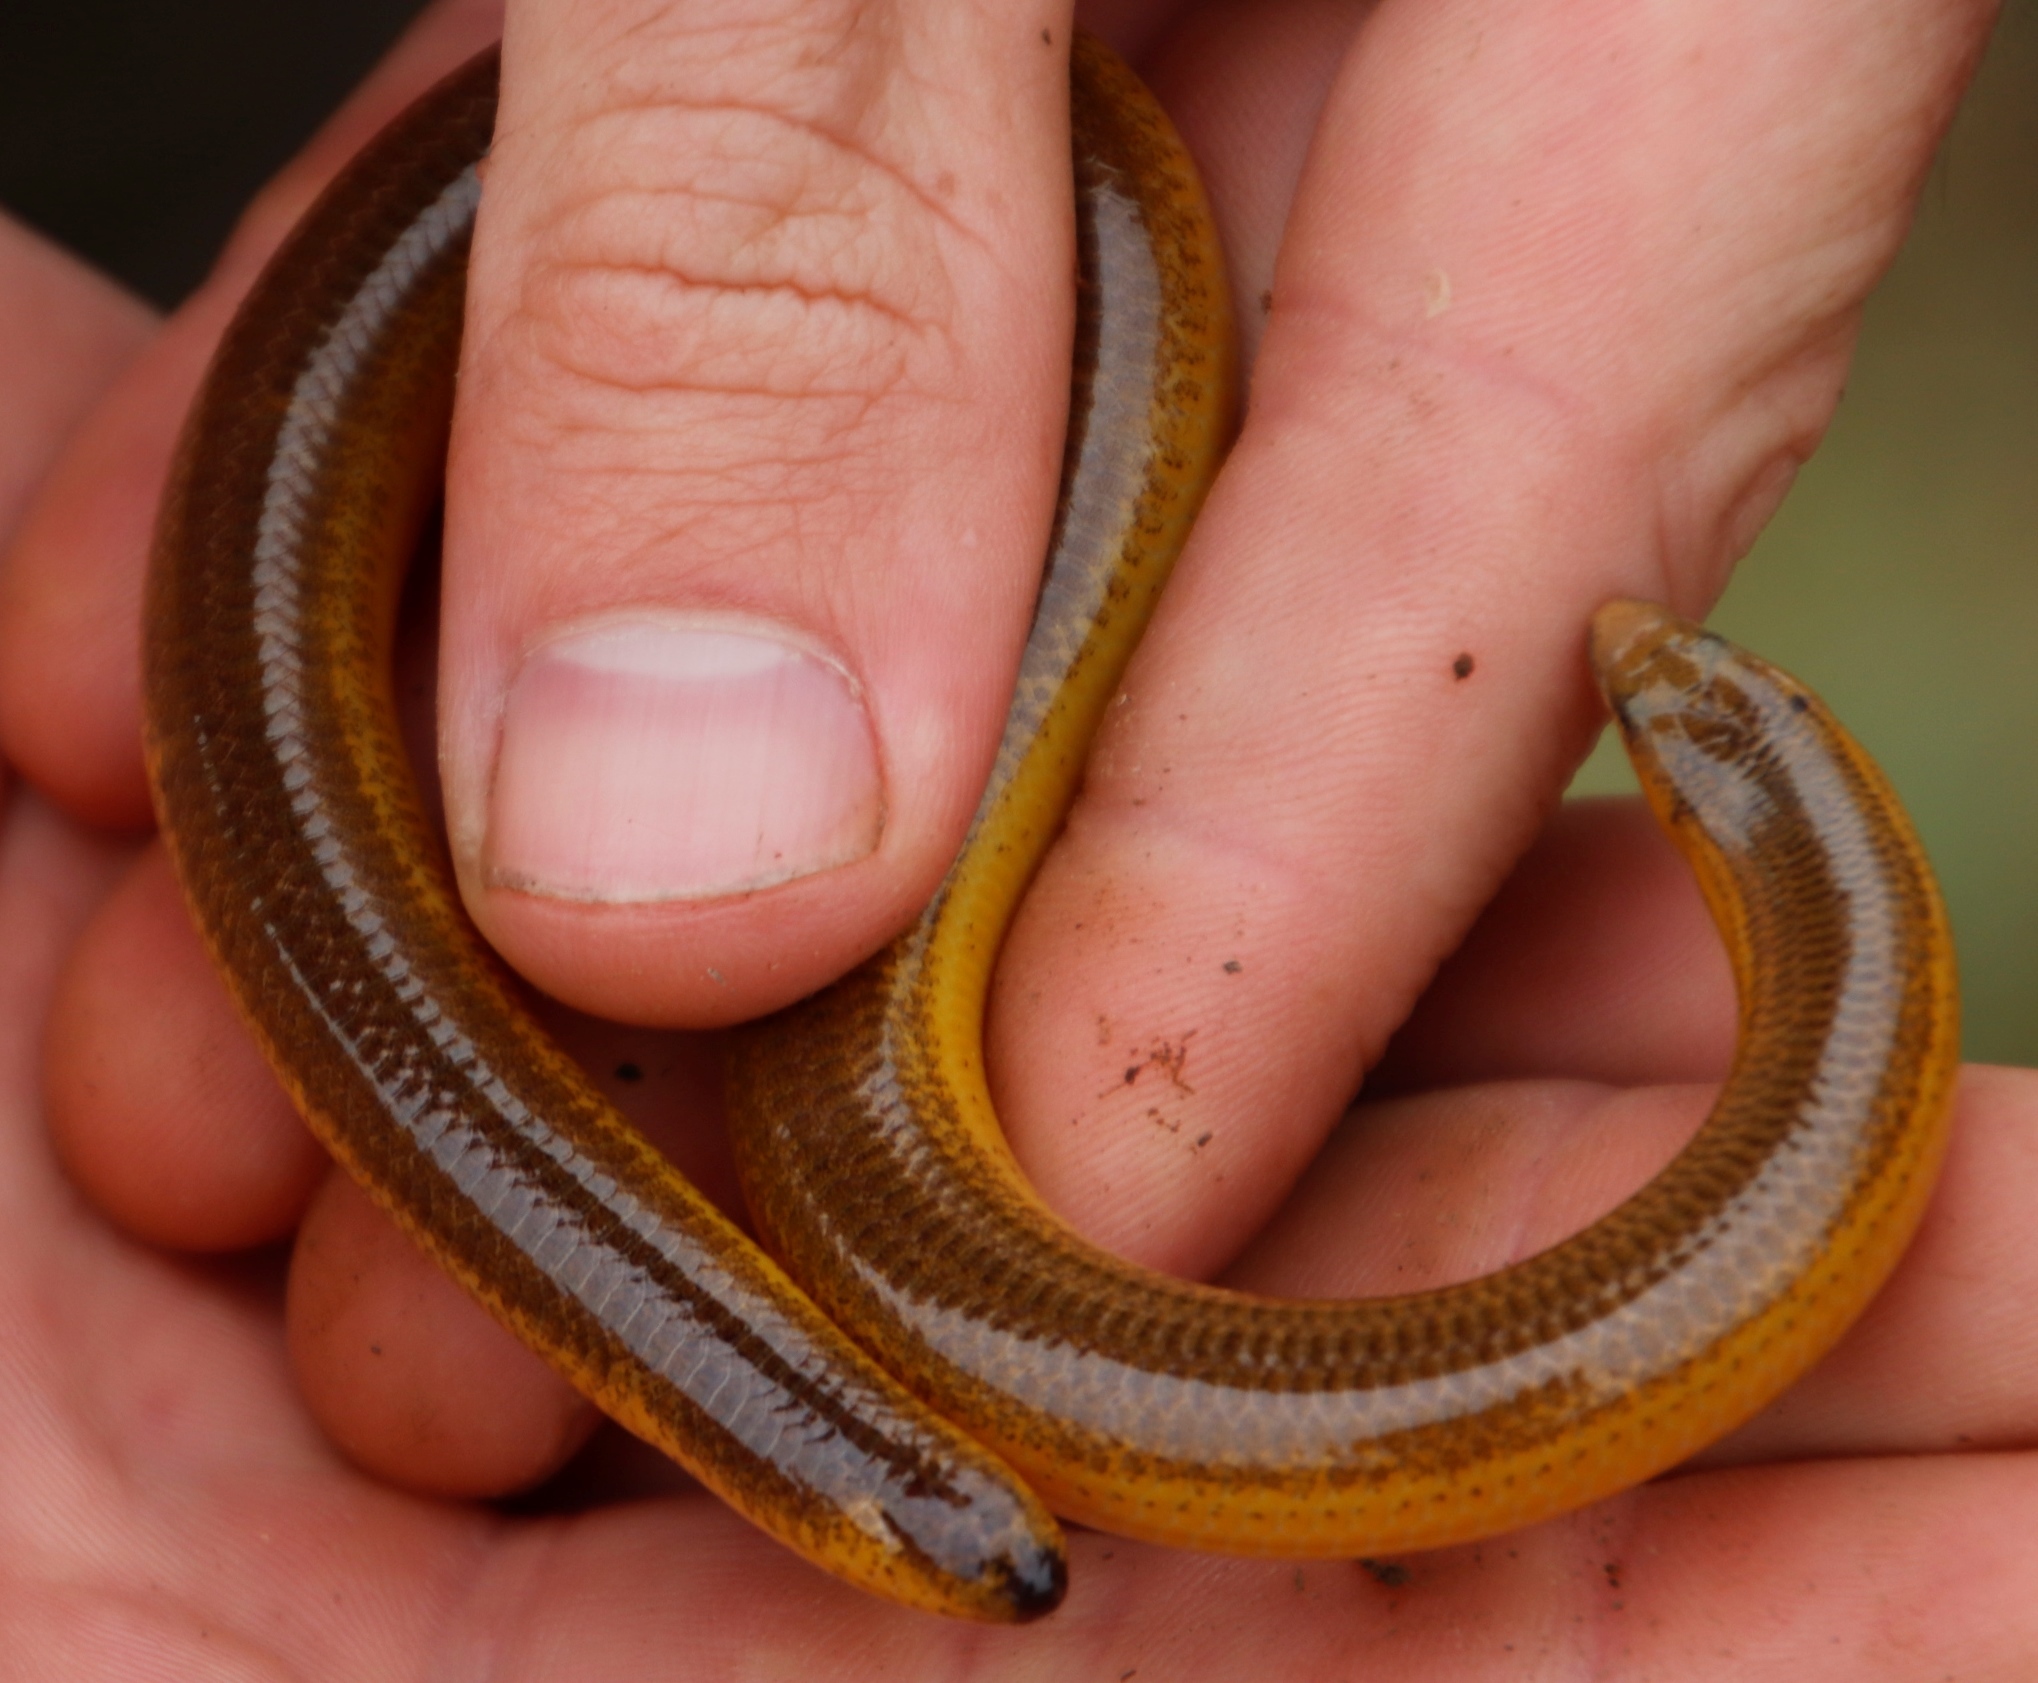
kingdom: Animalia
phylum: Chordata
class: Squamata
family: Scincidae
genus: Acontias
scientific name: Acontias meleagris
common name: Cape legless skink
